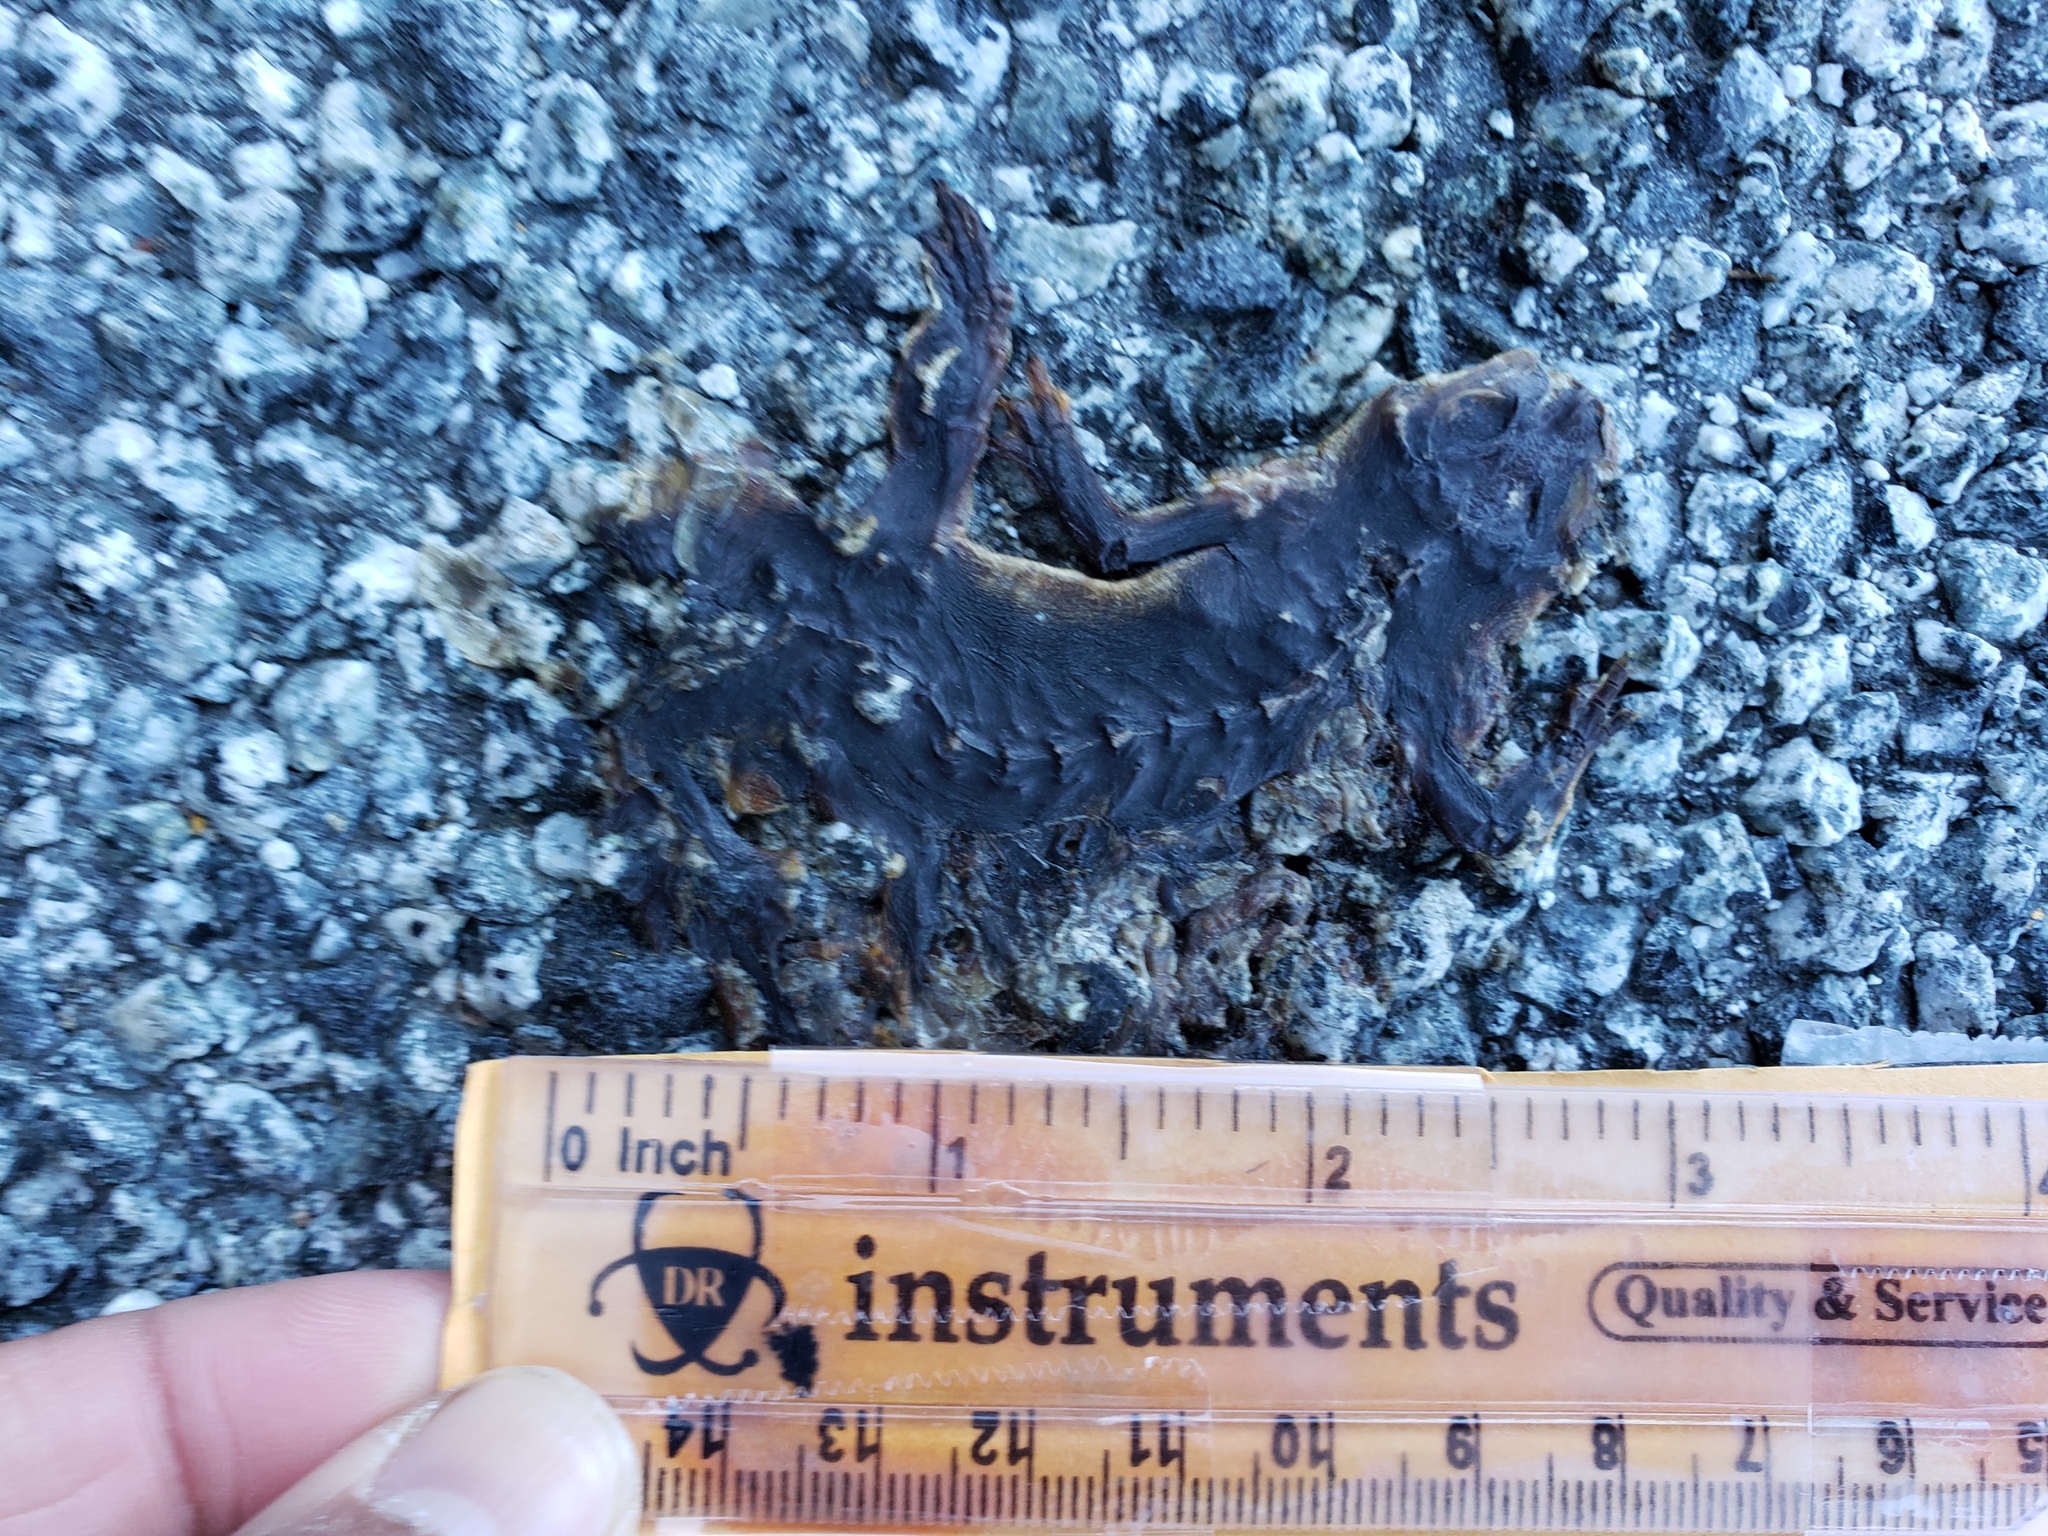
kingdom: Animalia
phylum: Chordata
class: Amphibia
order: Caudata
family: Salamandridae
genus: Taricha
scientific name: Taricha
